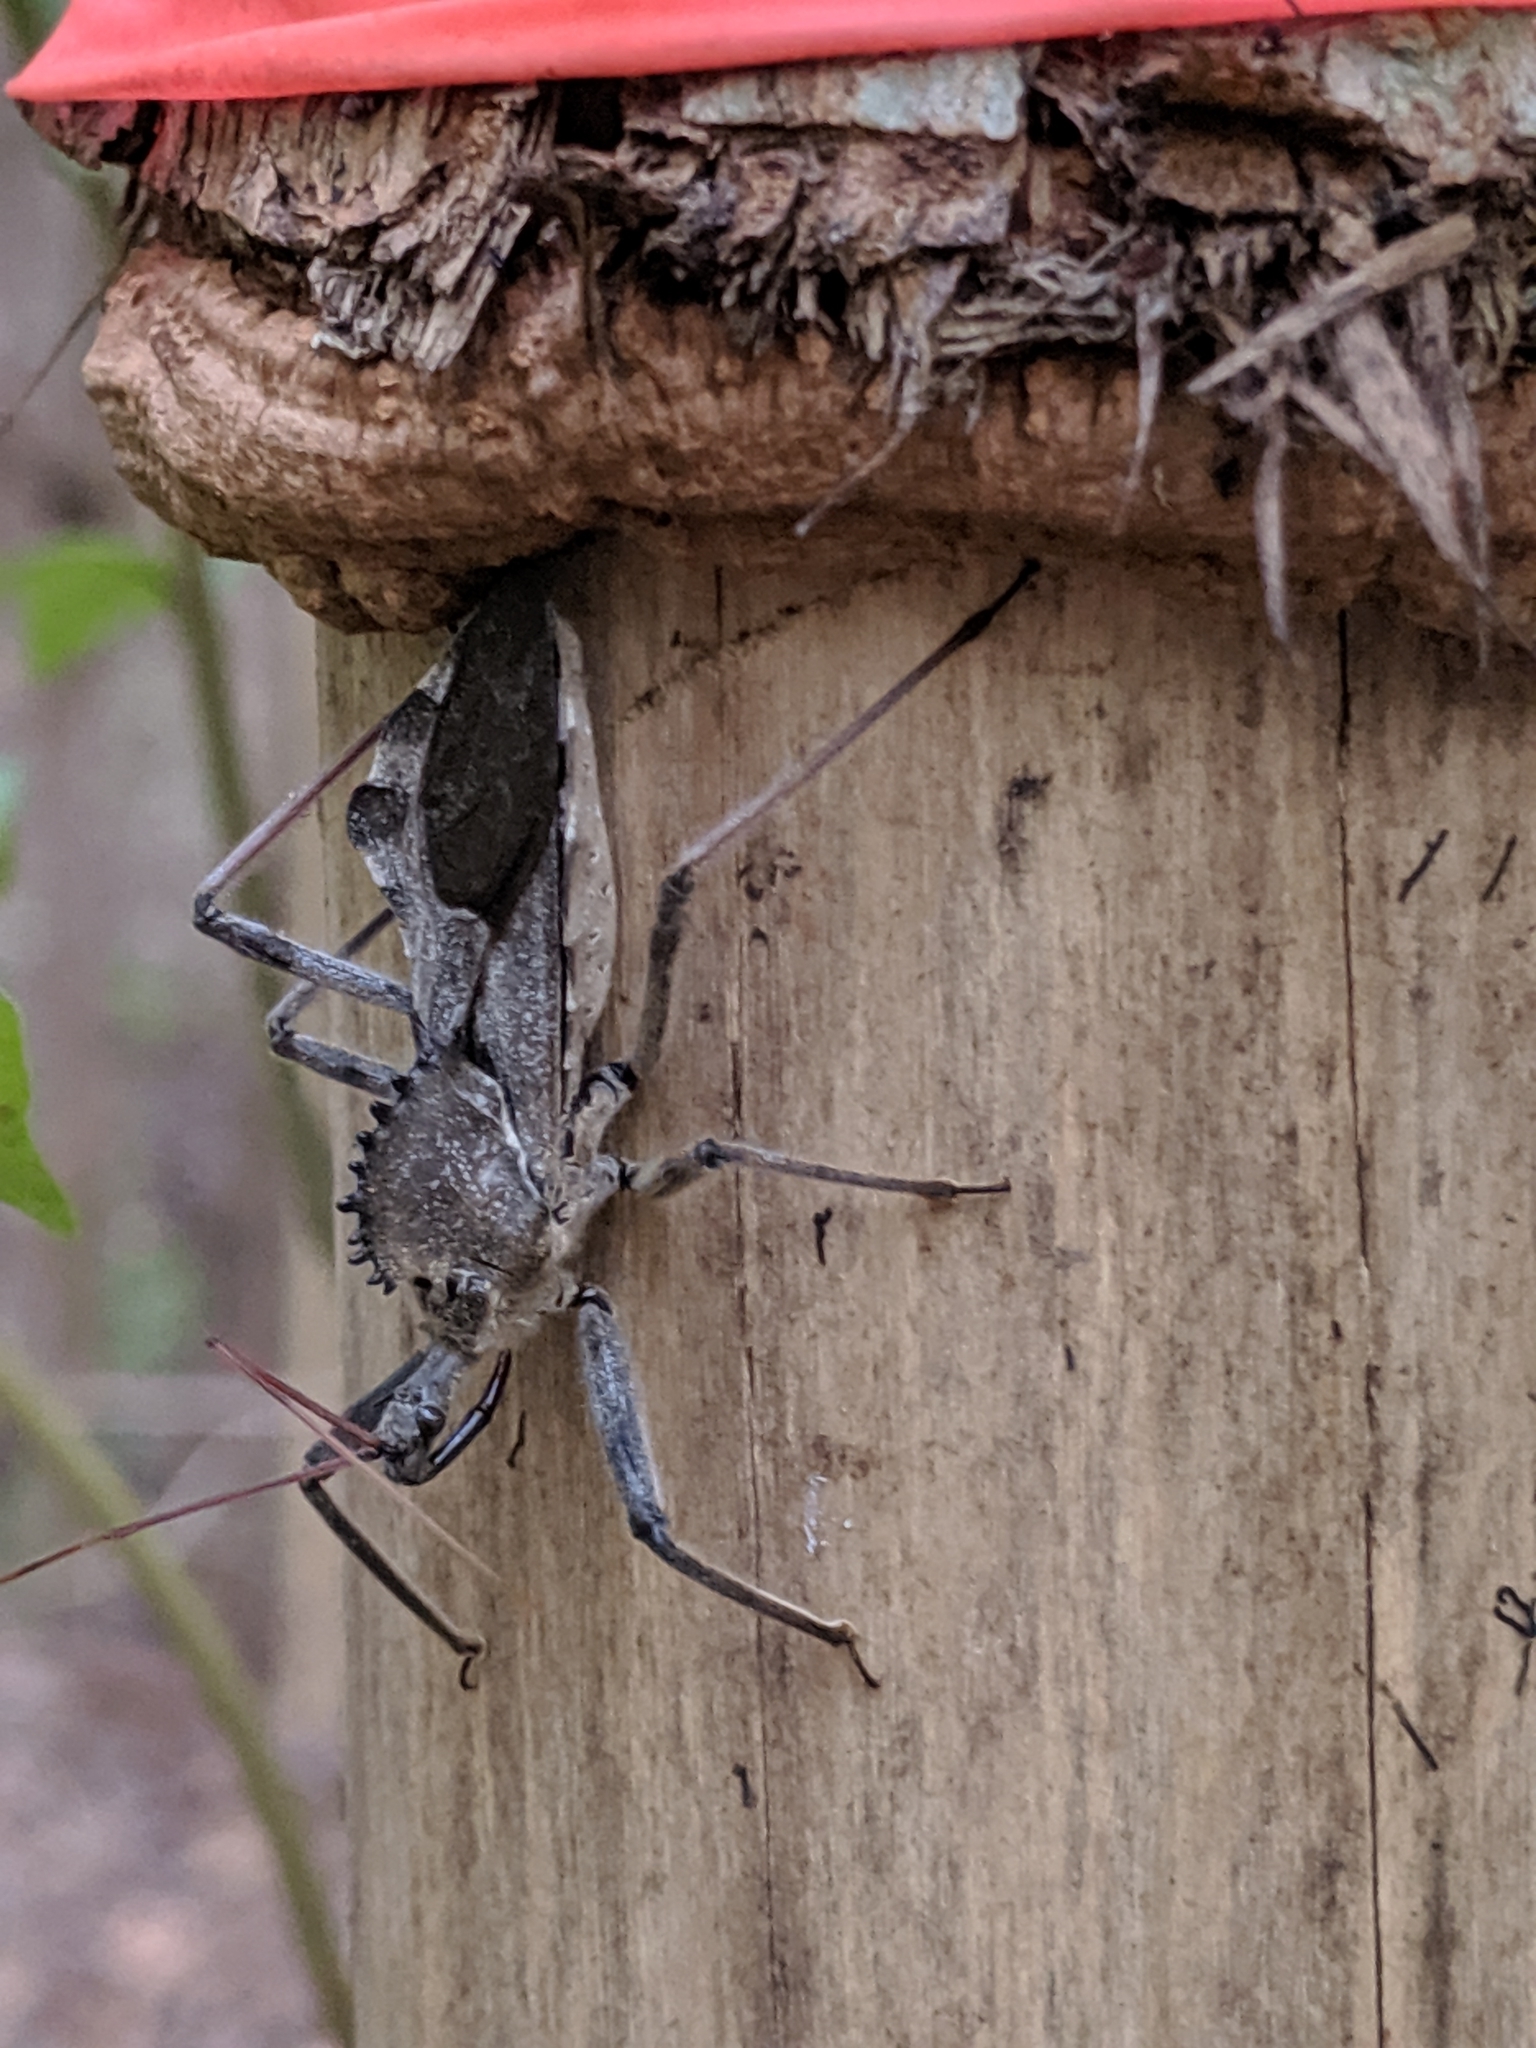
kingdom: Animalia
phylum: Arthropoda
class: Insecta
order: Hemiptera
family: Reduviidae
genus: Arilus
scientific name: Arilus cristatus
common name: North american wheel bug
